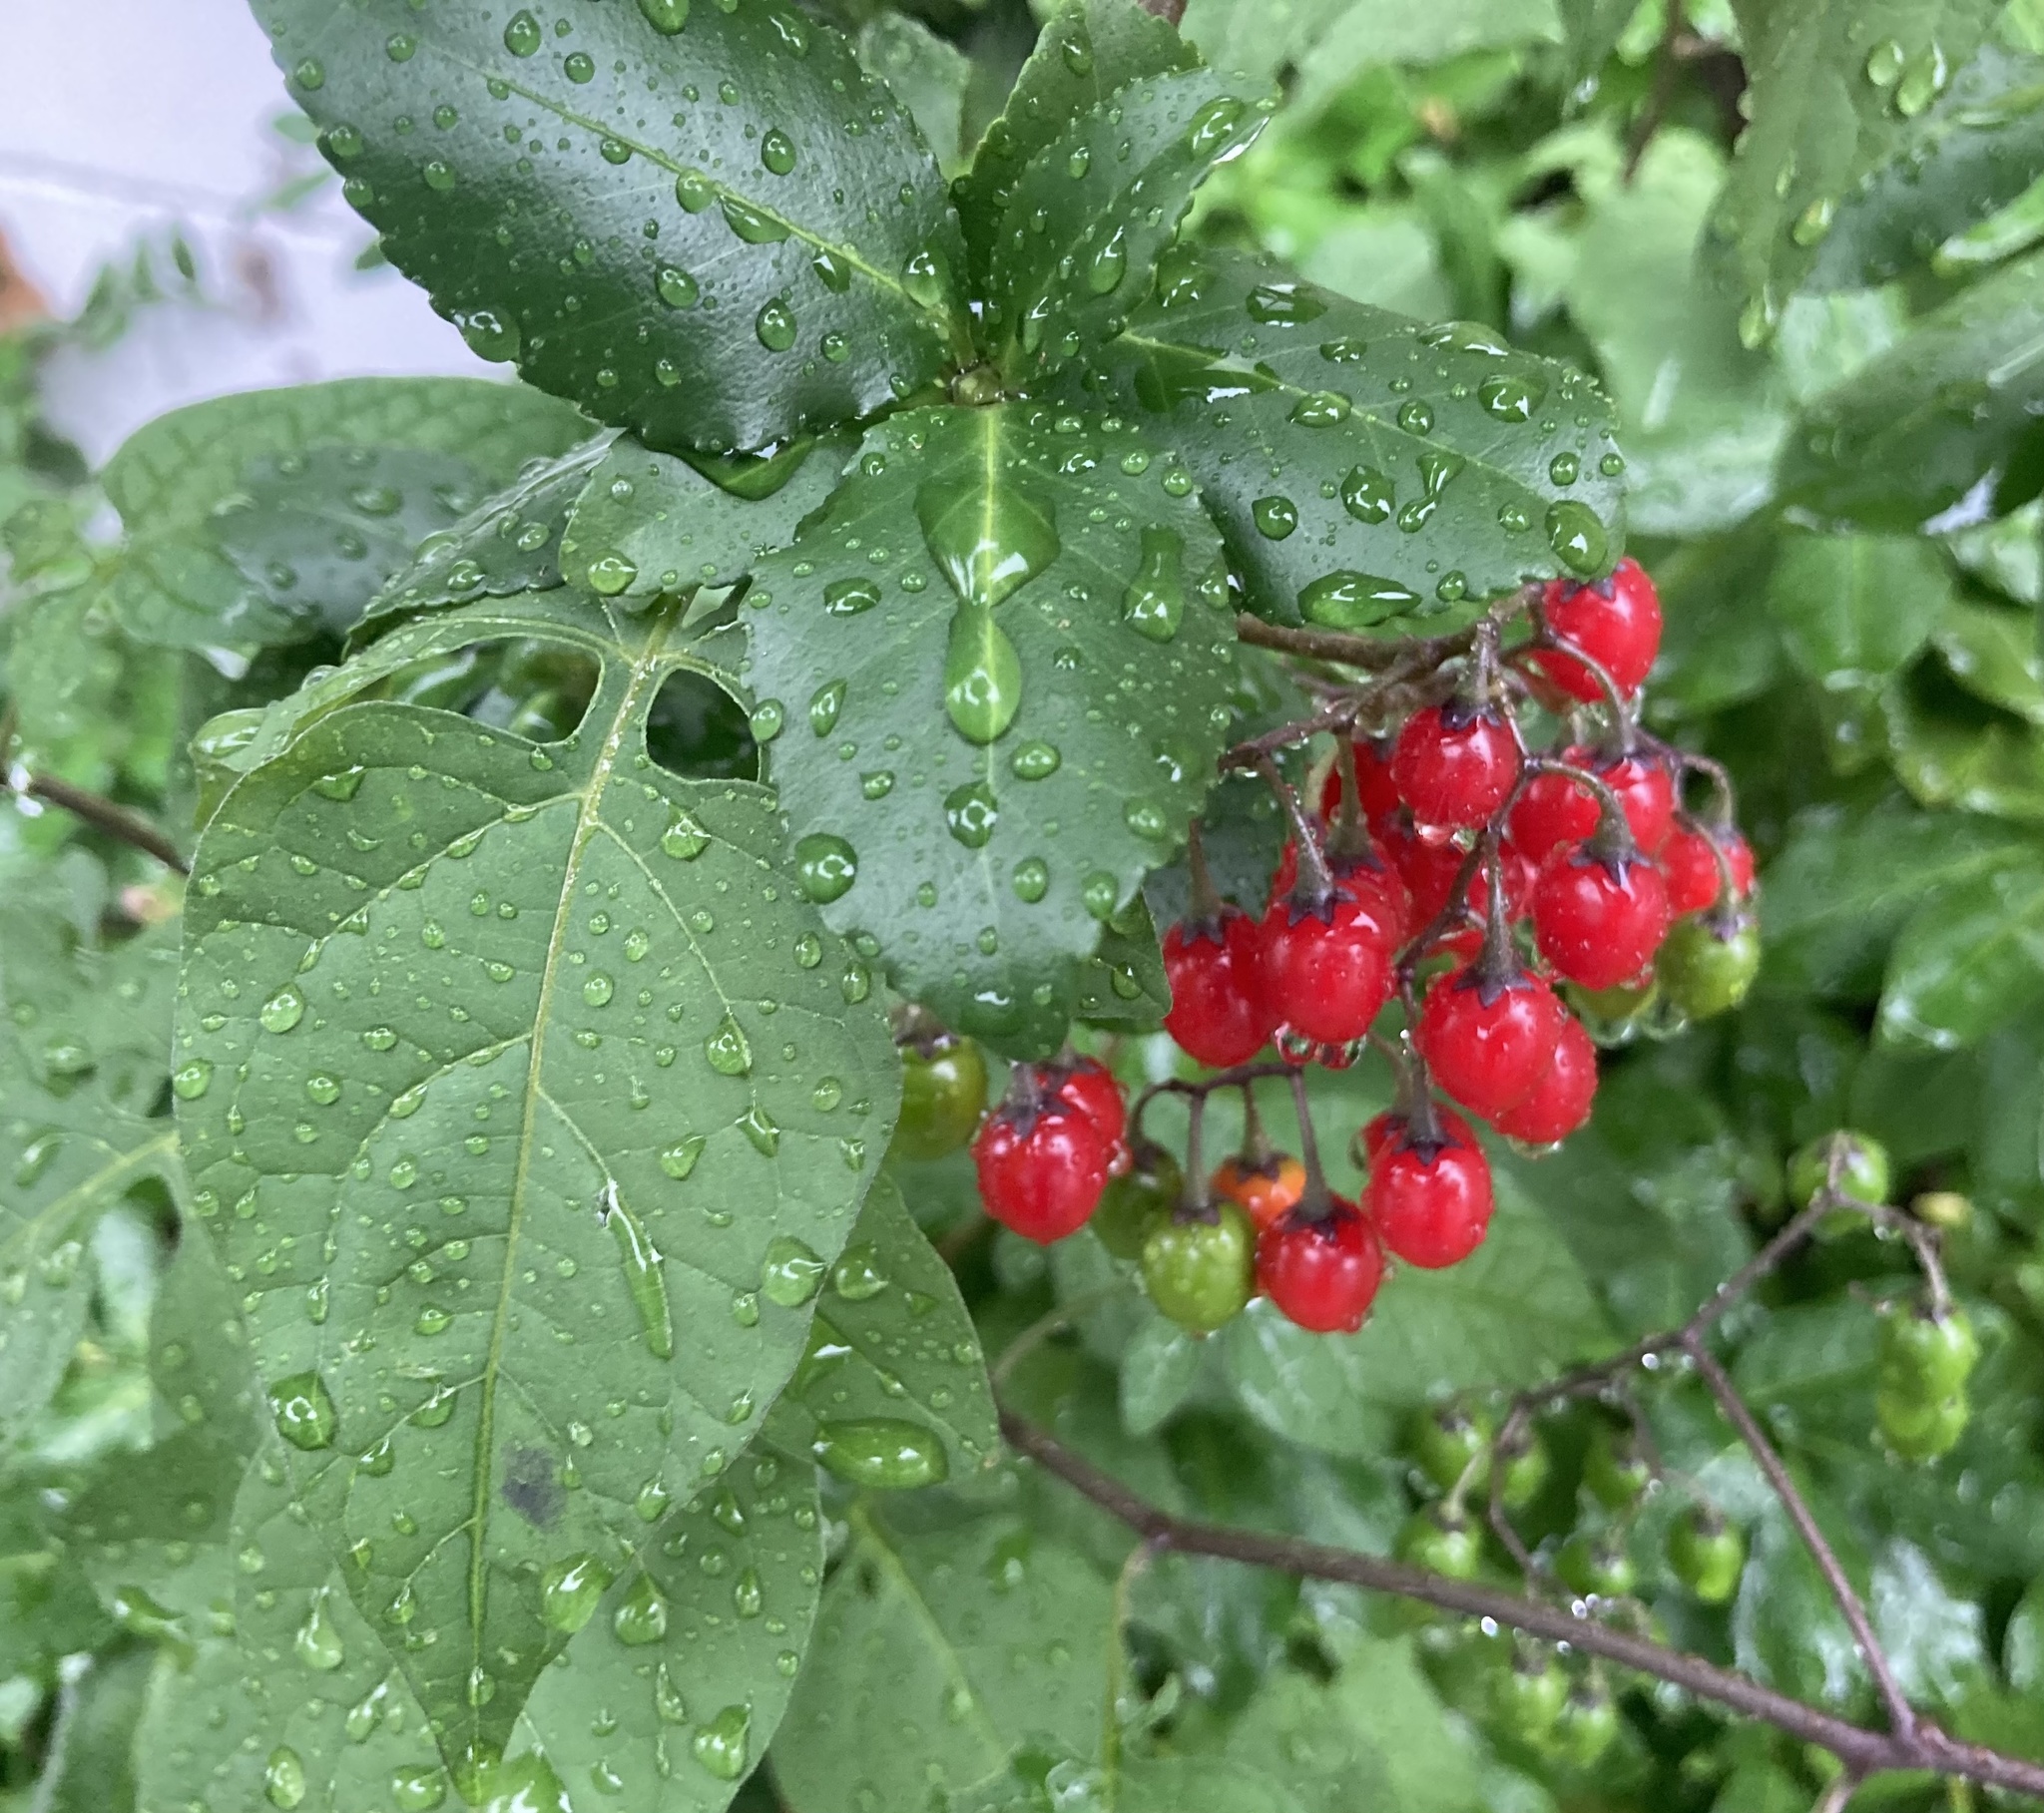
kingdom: Plantae
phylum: Tracheophyta
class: Magnoliopsida
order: Solanales
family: Solanaceae
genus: Solanum
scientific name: Solanum dulcamara
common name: Climbing nightshade
